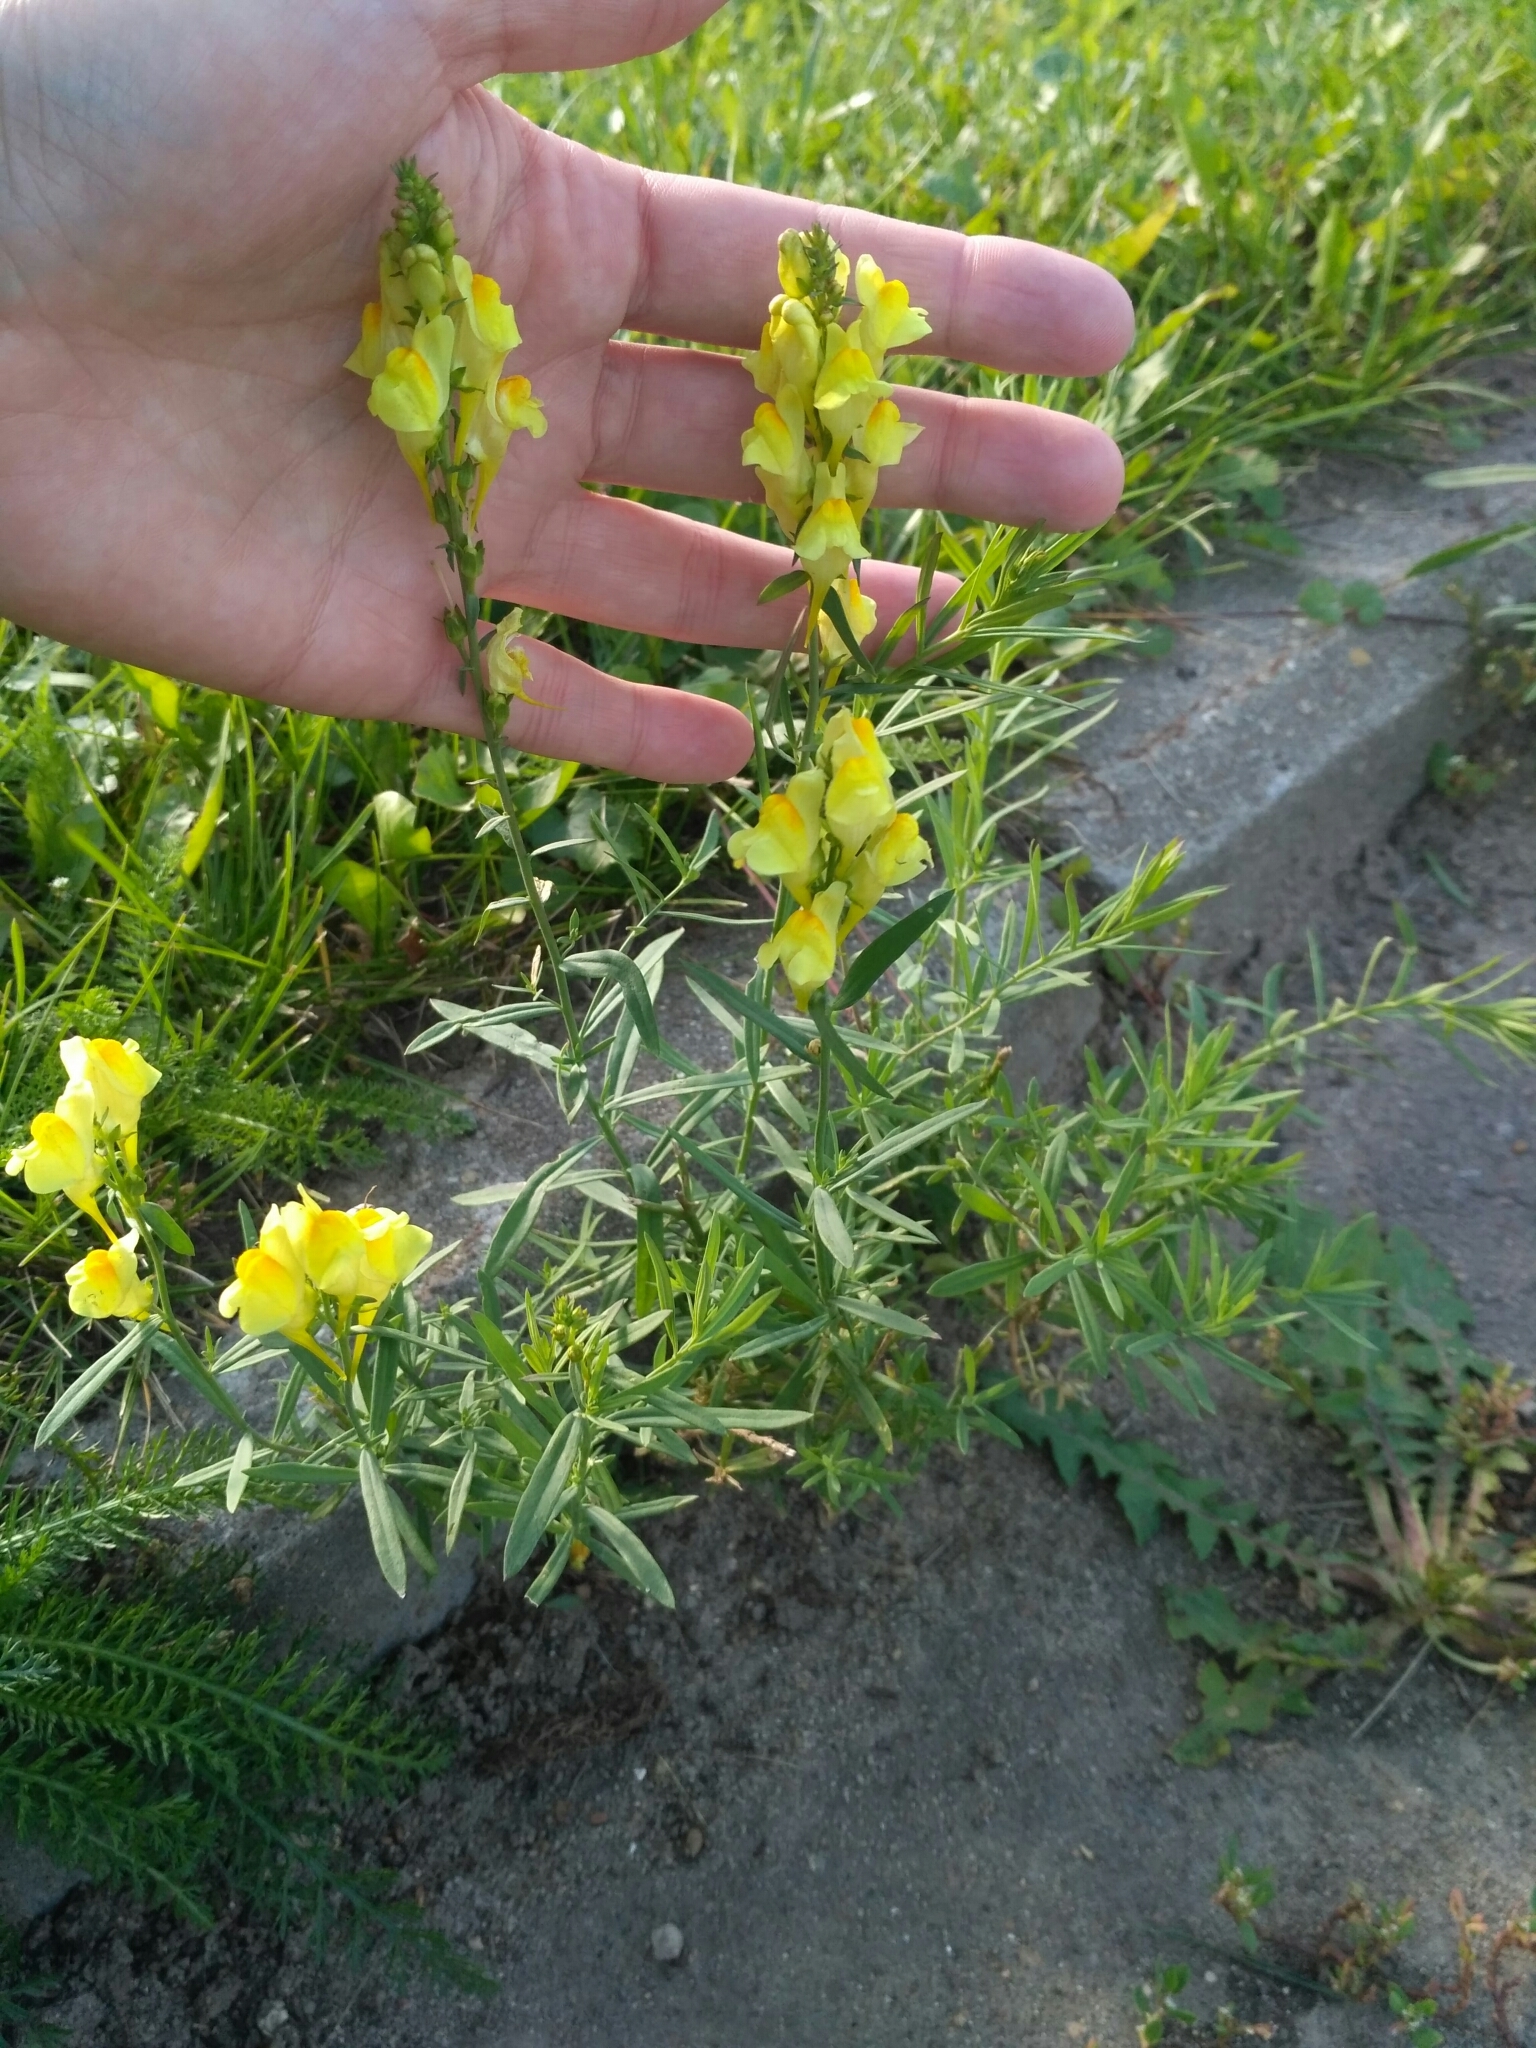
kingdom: Plantae
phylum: Tracheophyta
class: Magnoliopsida
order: Lamiales
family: Plantaginaceae
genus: Linaria
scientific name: Linaria vulgaris
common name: Butter and eggs
